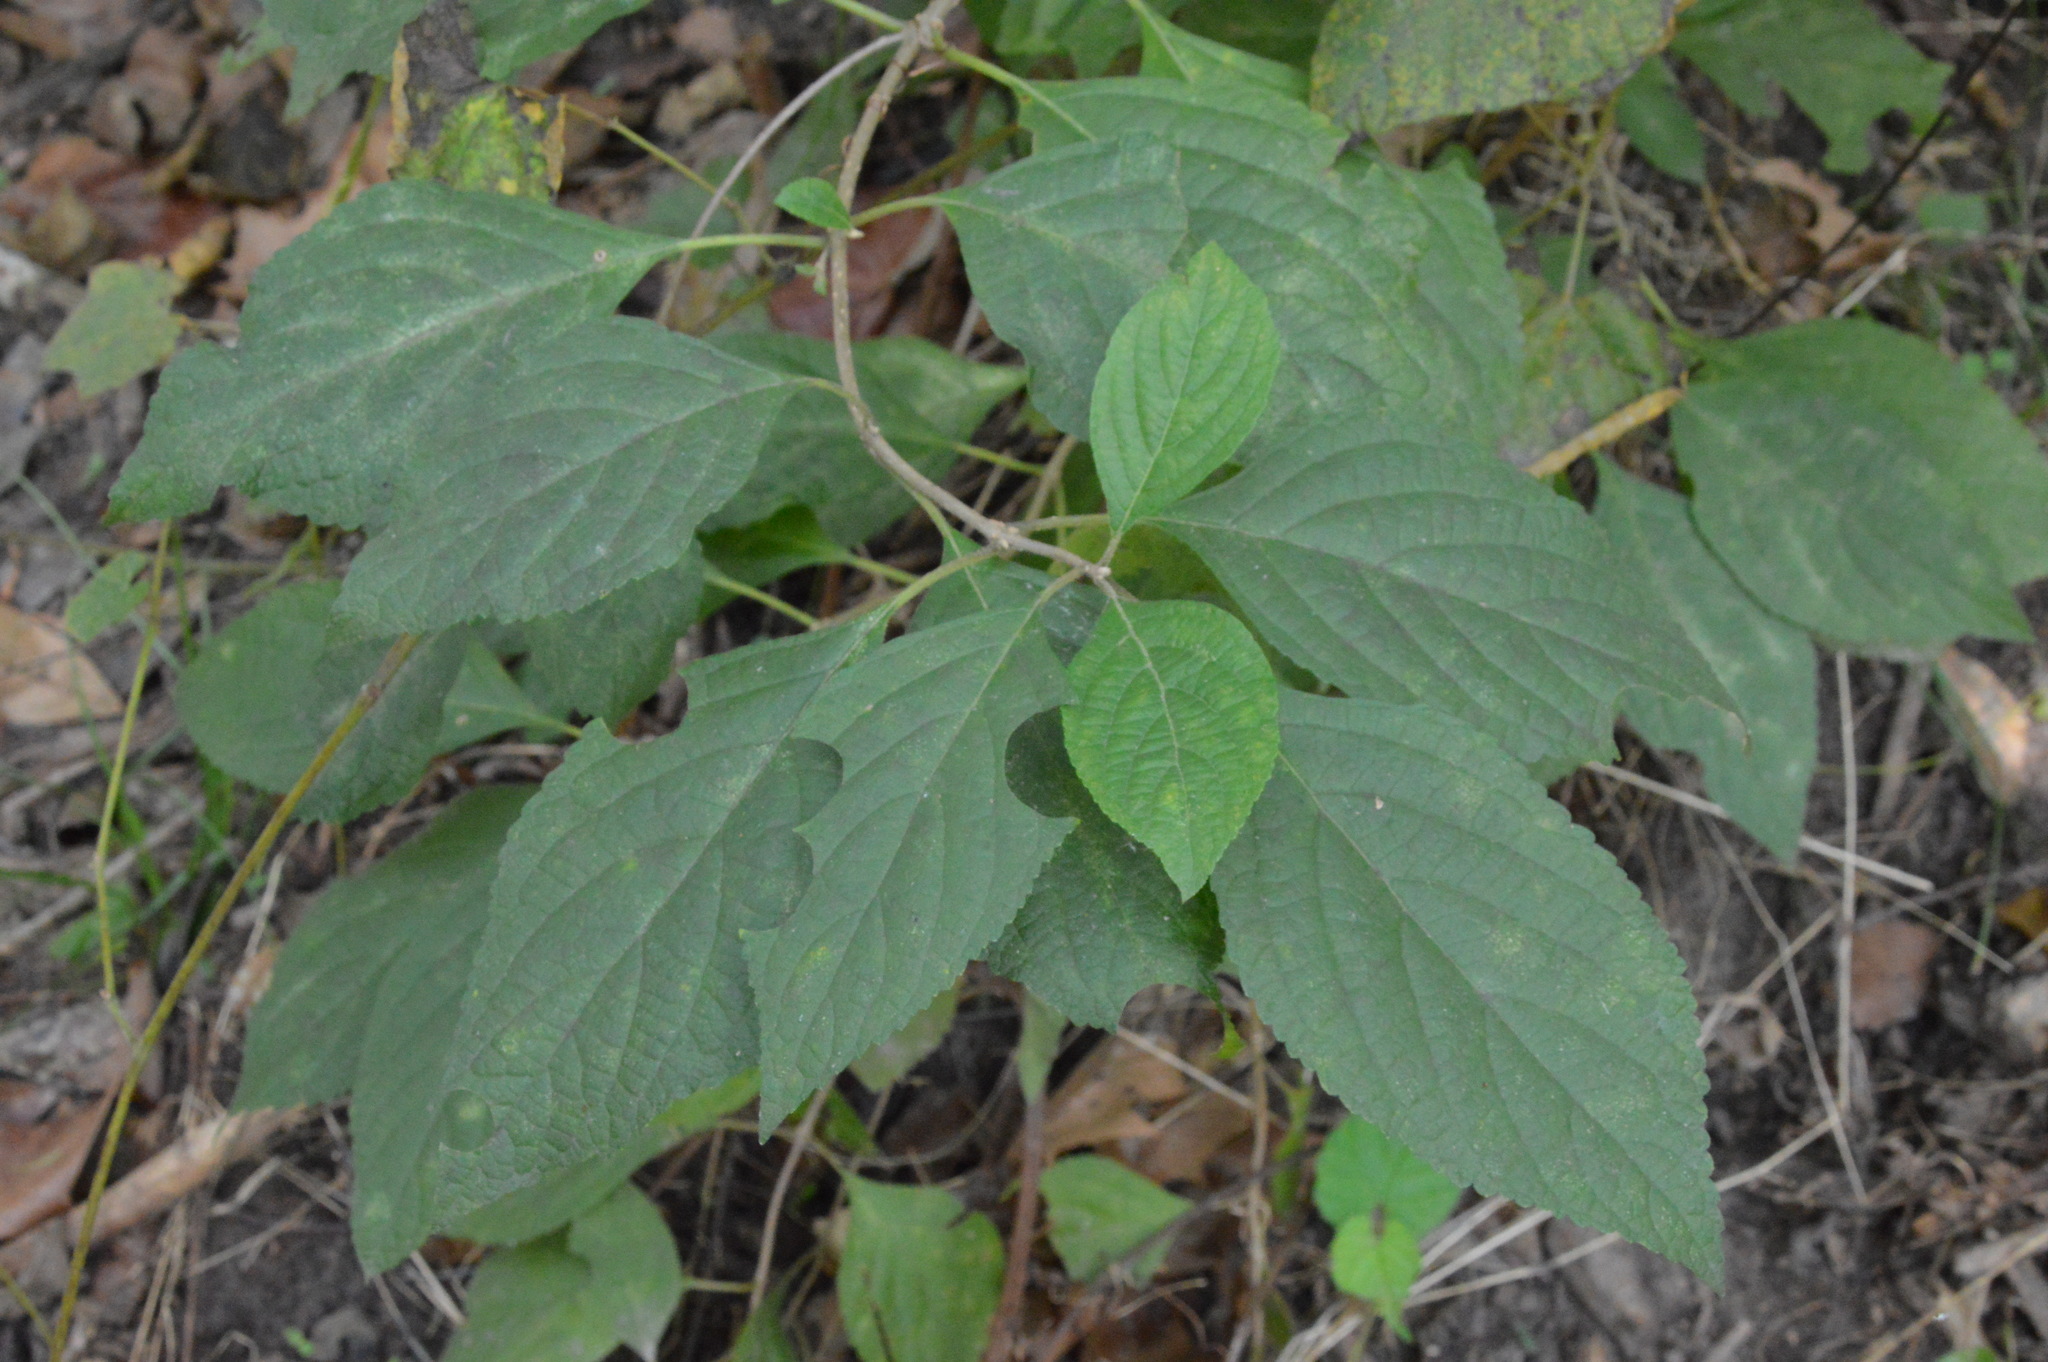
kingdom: Plantae
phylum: Tracheophyta
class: Magnoliopsida
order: Lamiales
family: Lamiaceae
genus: Callicarpa
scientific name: Callicarpa americana
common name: American beautyberry
